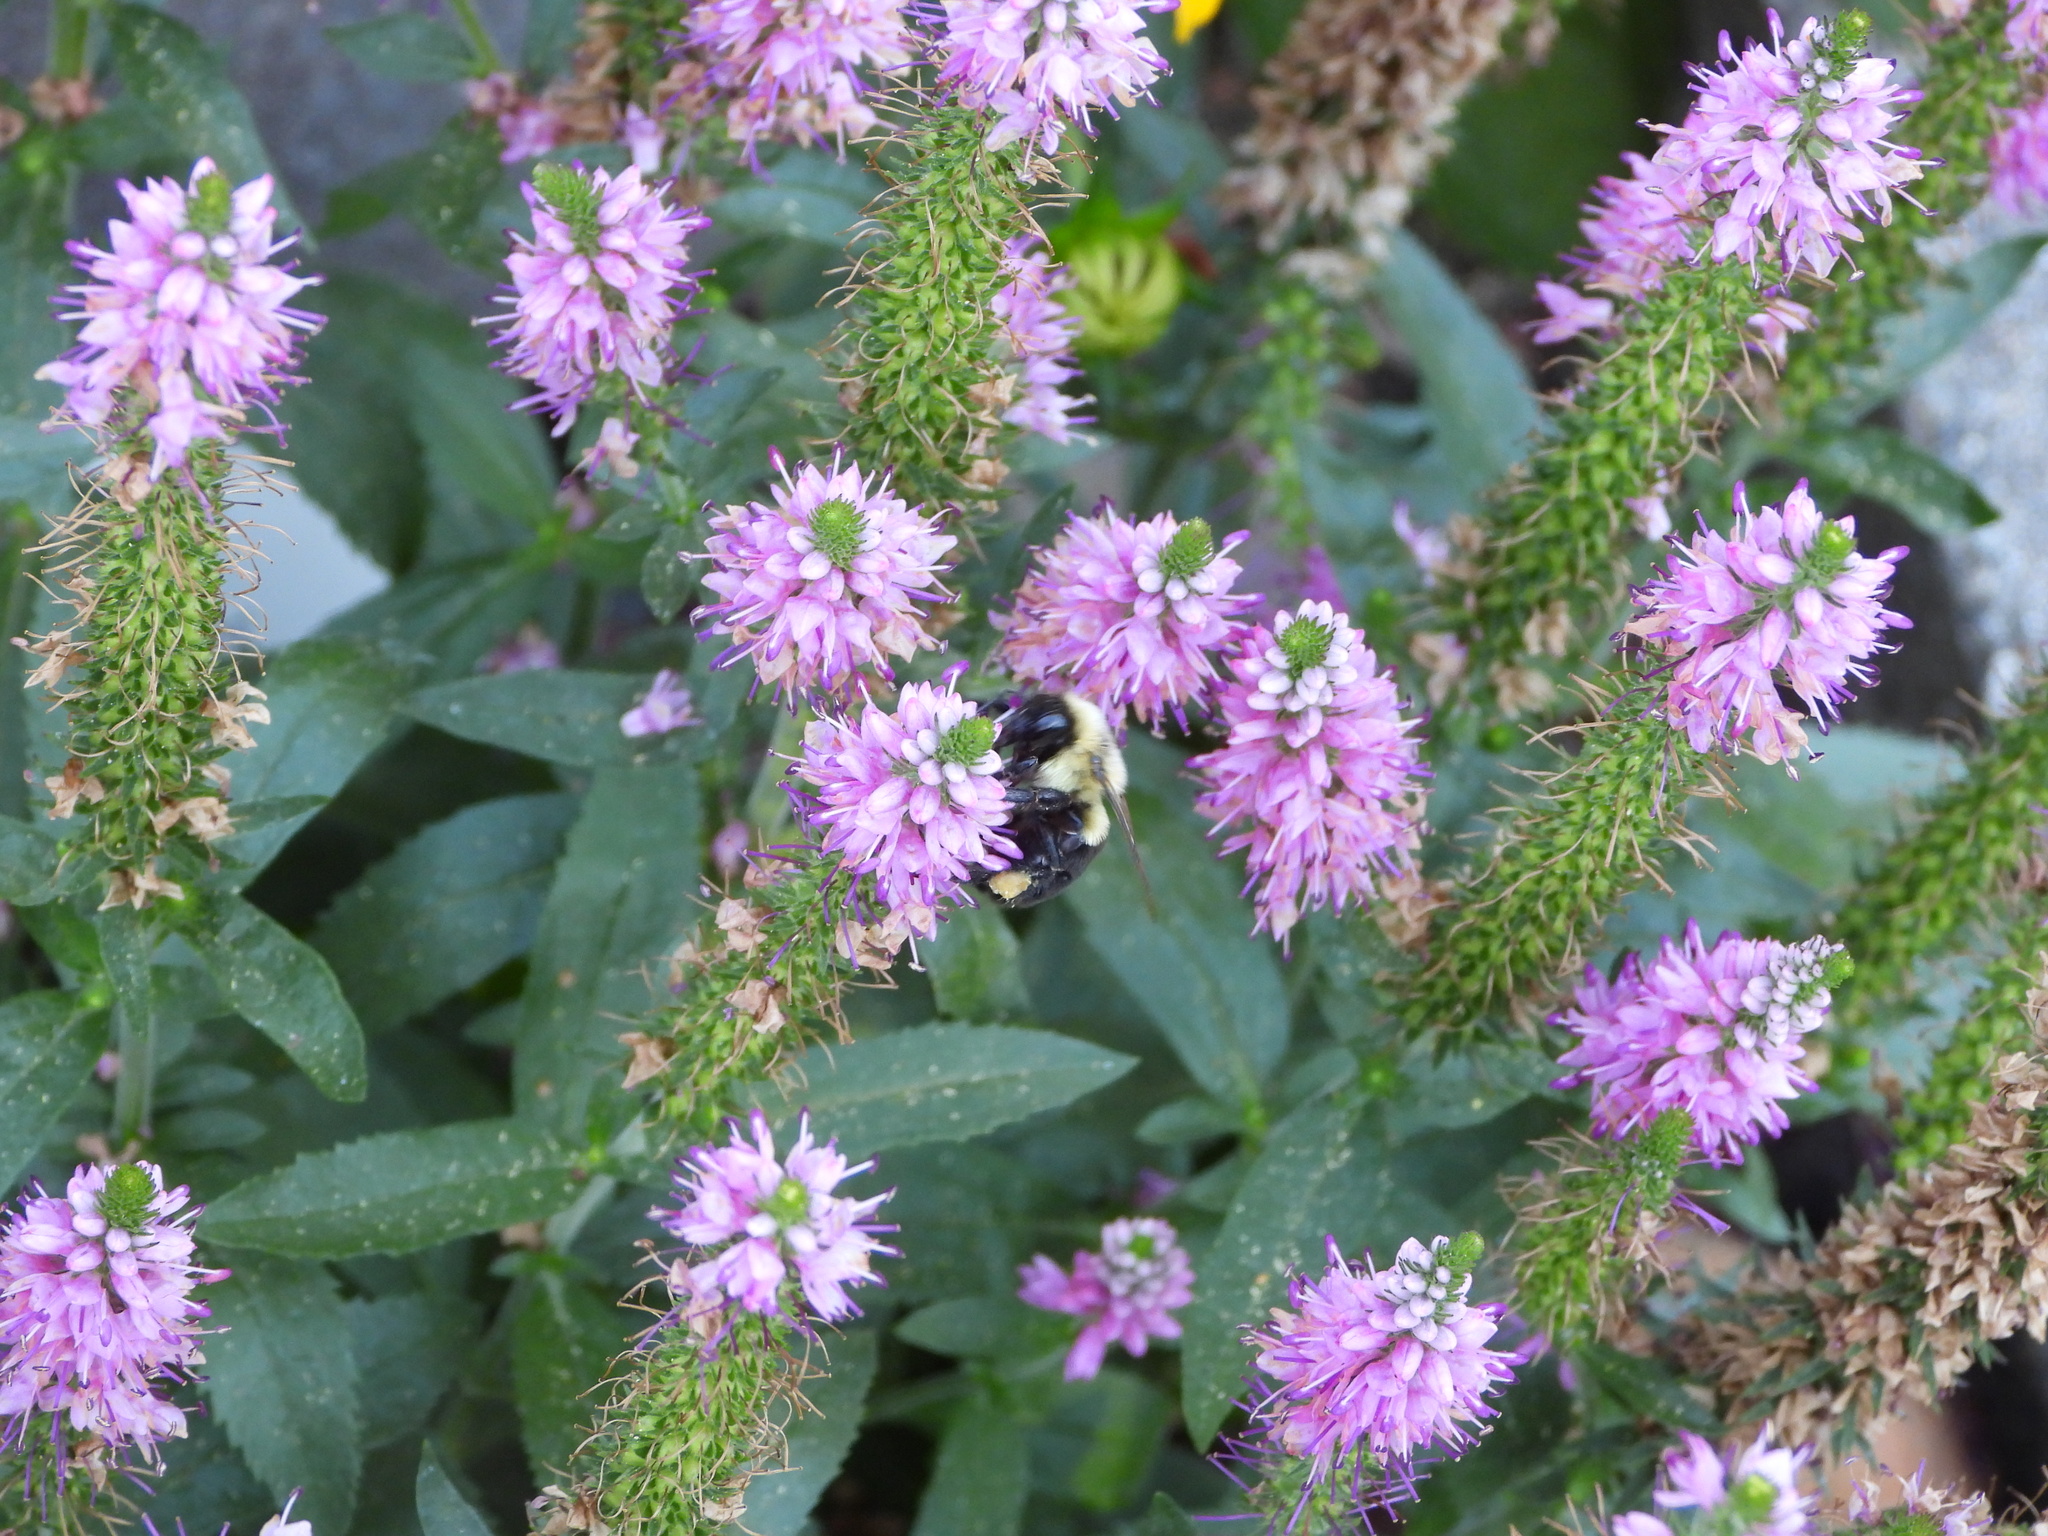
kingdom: Animalia
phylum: Arthropoda
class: Insecta
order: Hymenoptera
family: Apidae
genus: Bombus
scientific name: Bombus impatiens
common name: Common eastern bumble bee
